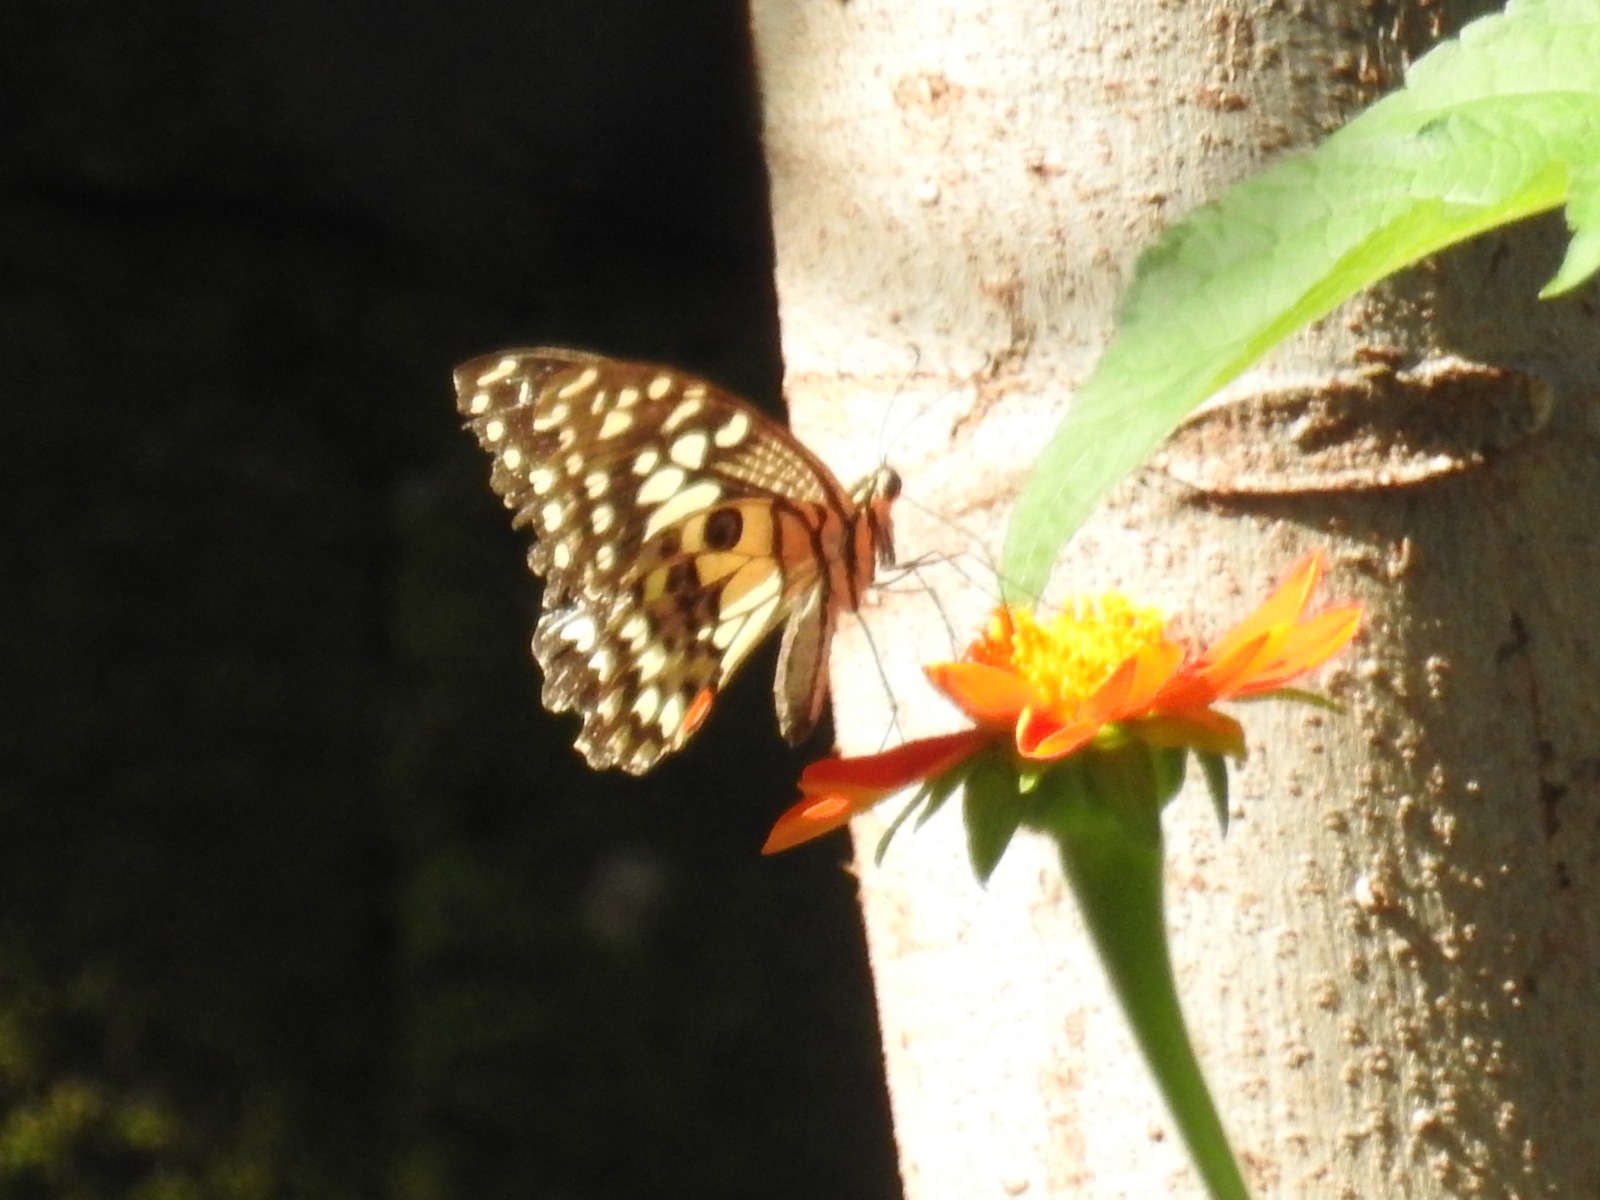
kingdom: Animalia
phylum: Arthropoda
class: Insecta
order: Lepidoptera
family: Papilionidae
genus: Papilio
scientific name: Papilio demoleus
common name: Lime butterfly
